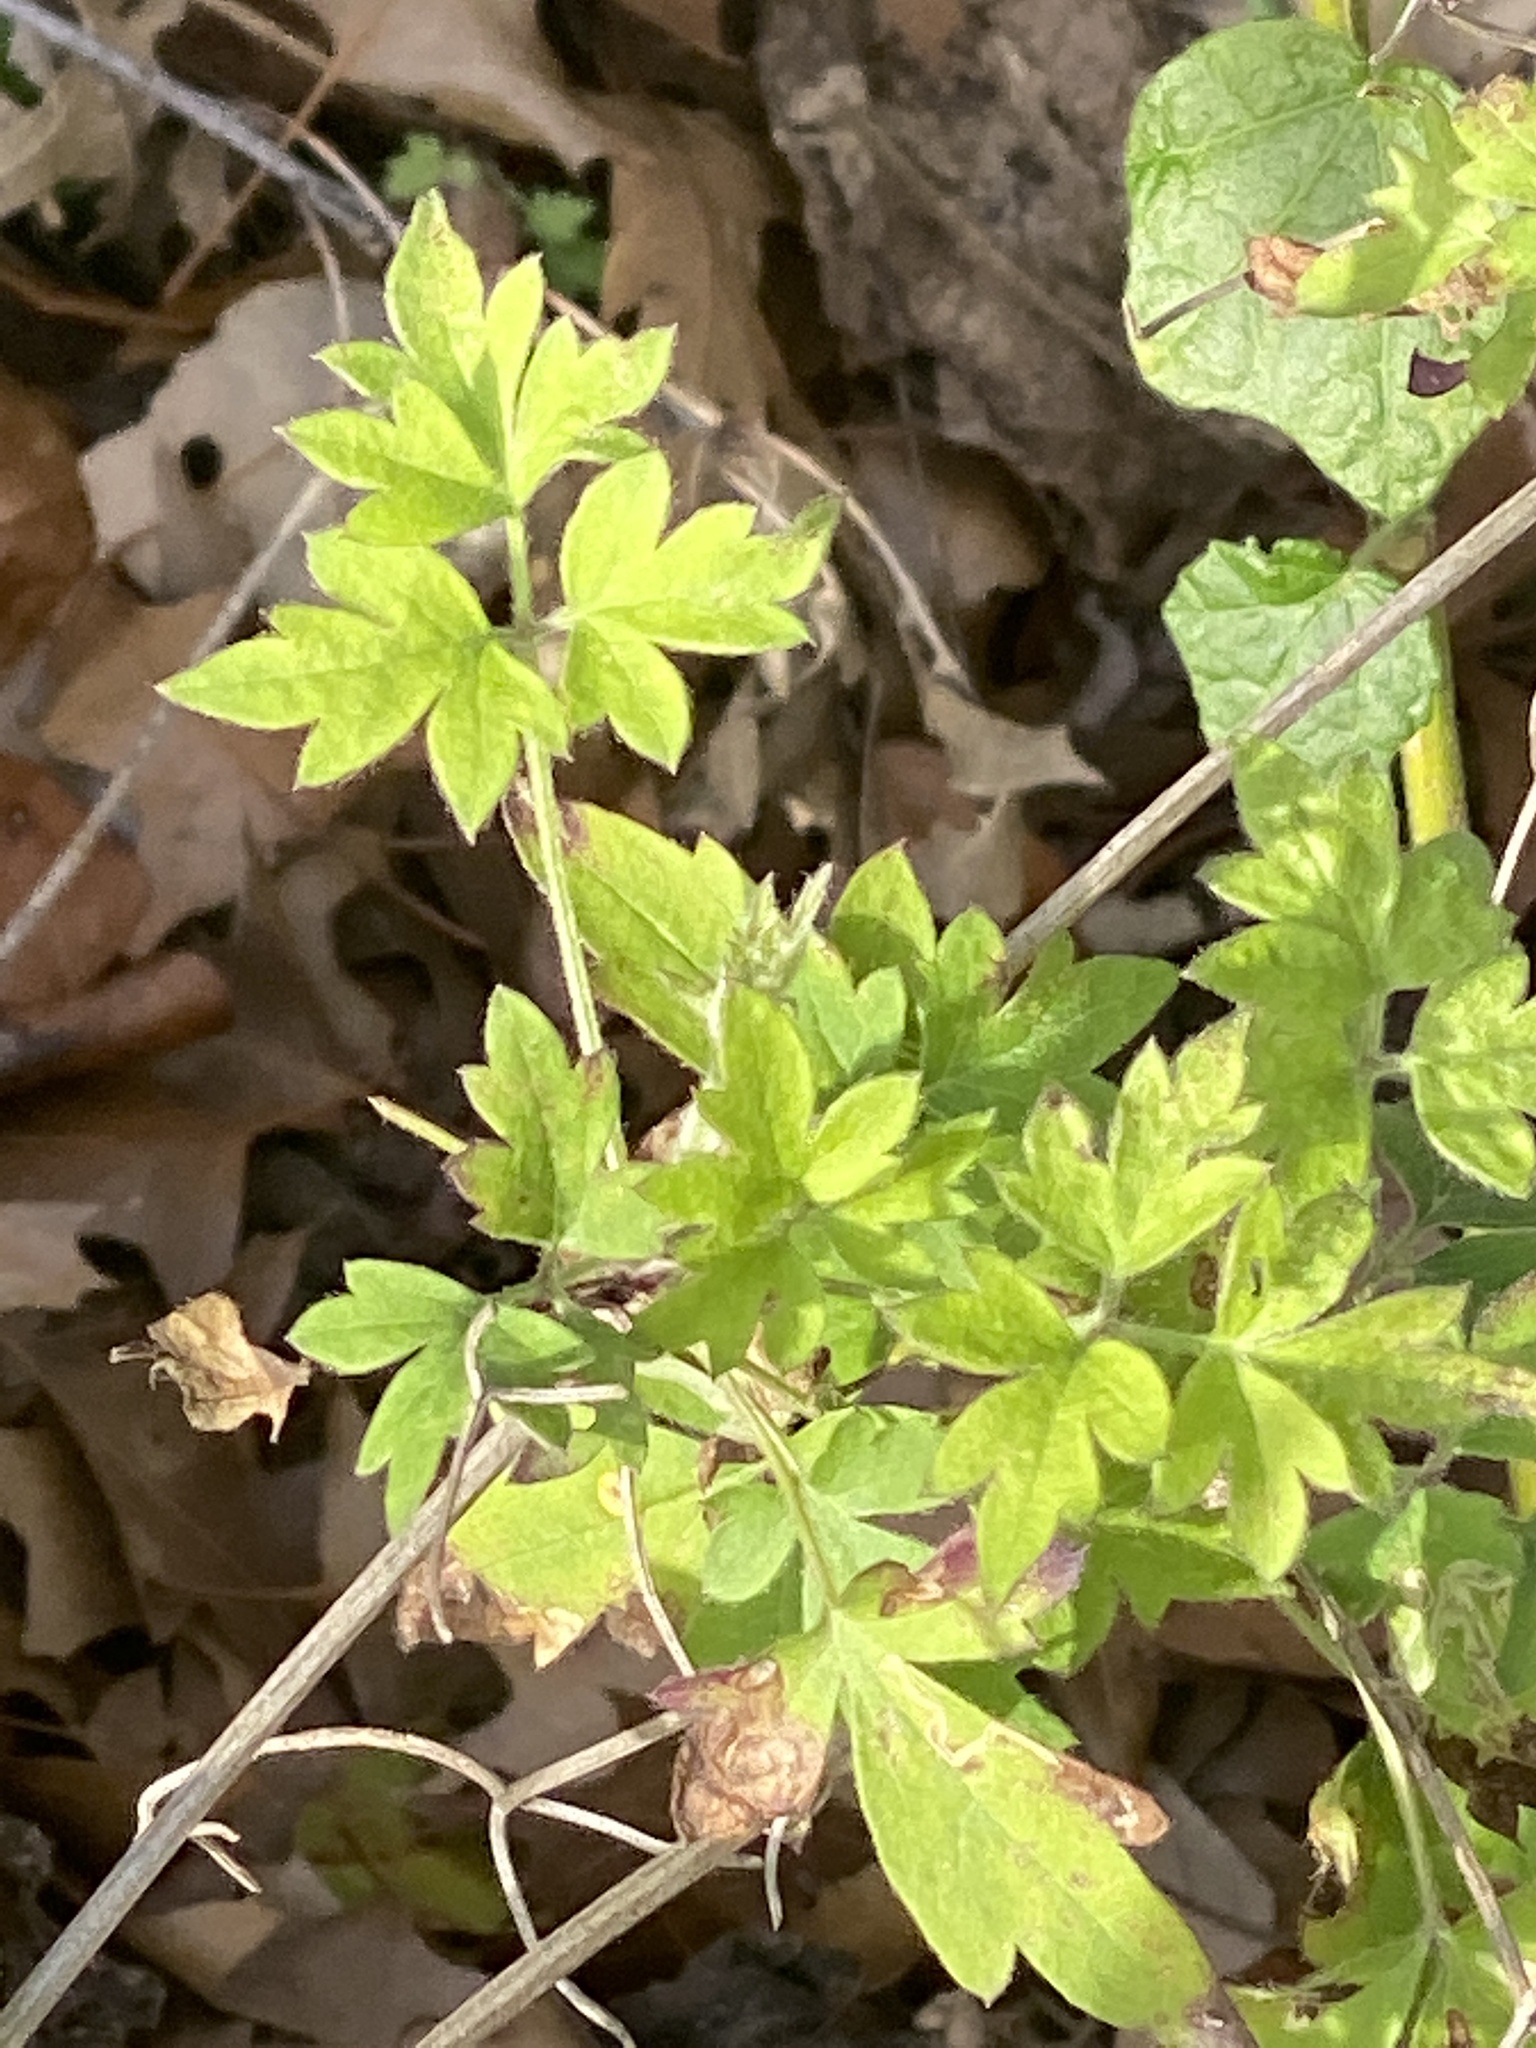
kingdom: Plantae
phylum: Tracheophyta
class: Magnoliopsida
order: Ranunculales
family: Ranunculaceae
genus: Clematis
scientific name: Clematis drummondii
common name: Texas virgin's bower
